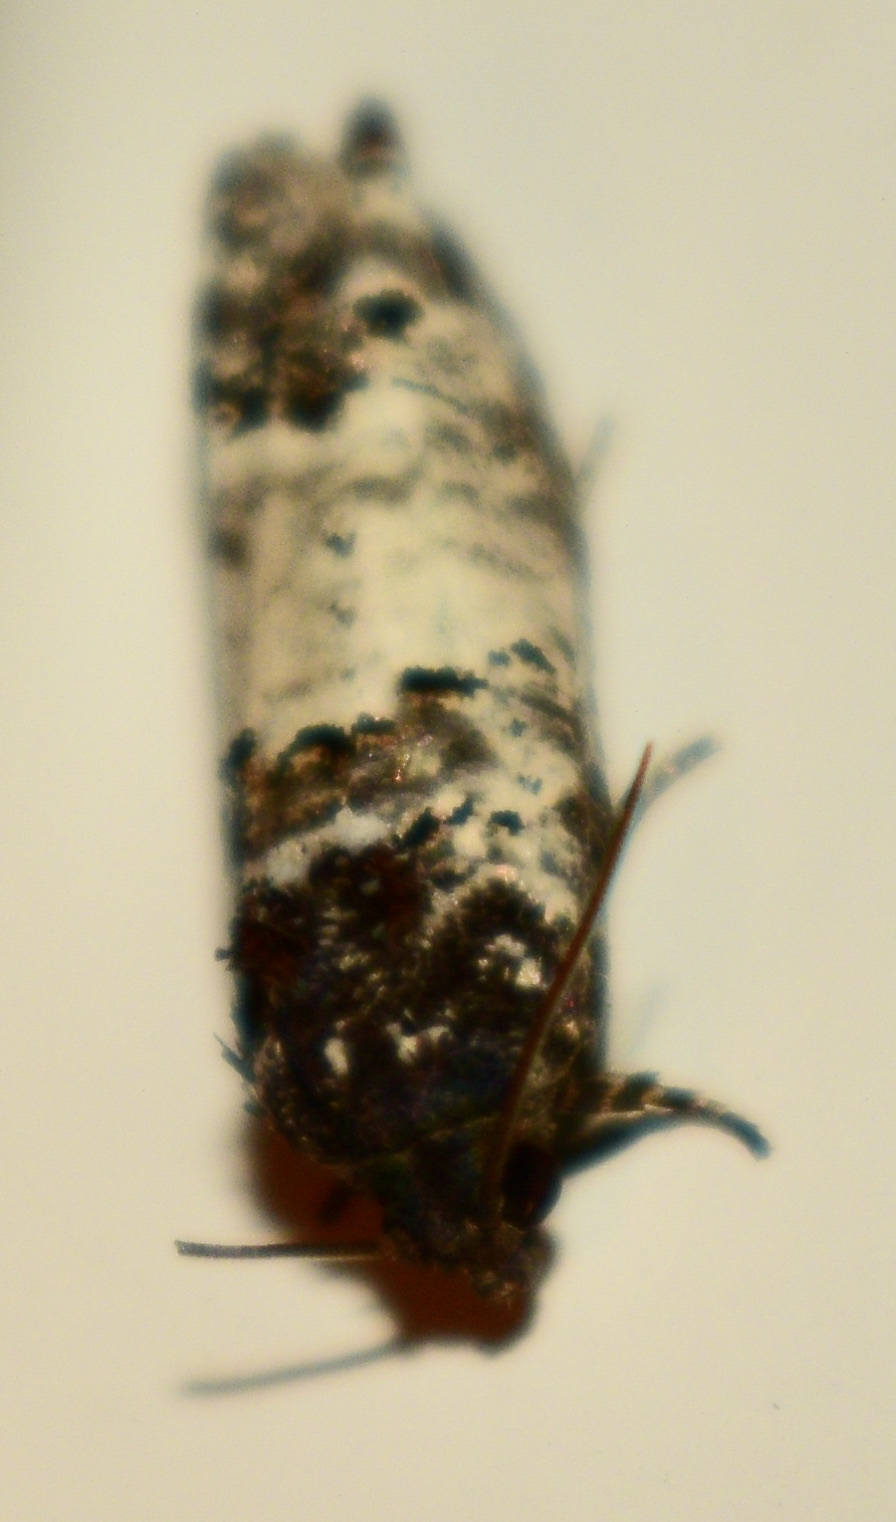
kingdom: Animalia
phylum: Arthropoda
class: Insecta
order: Lepidoptera
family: Tortricidae
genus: Epiblema
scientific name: Epiblema carolinana
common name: Gray-blotched epiblema moth
